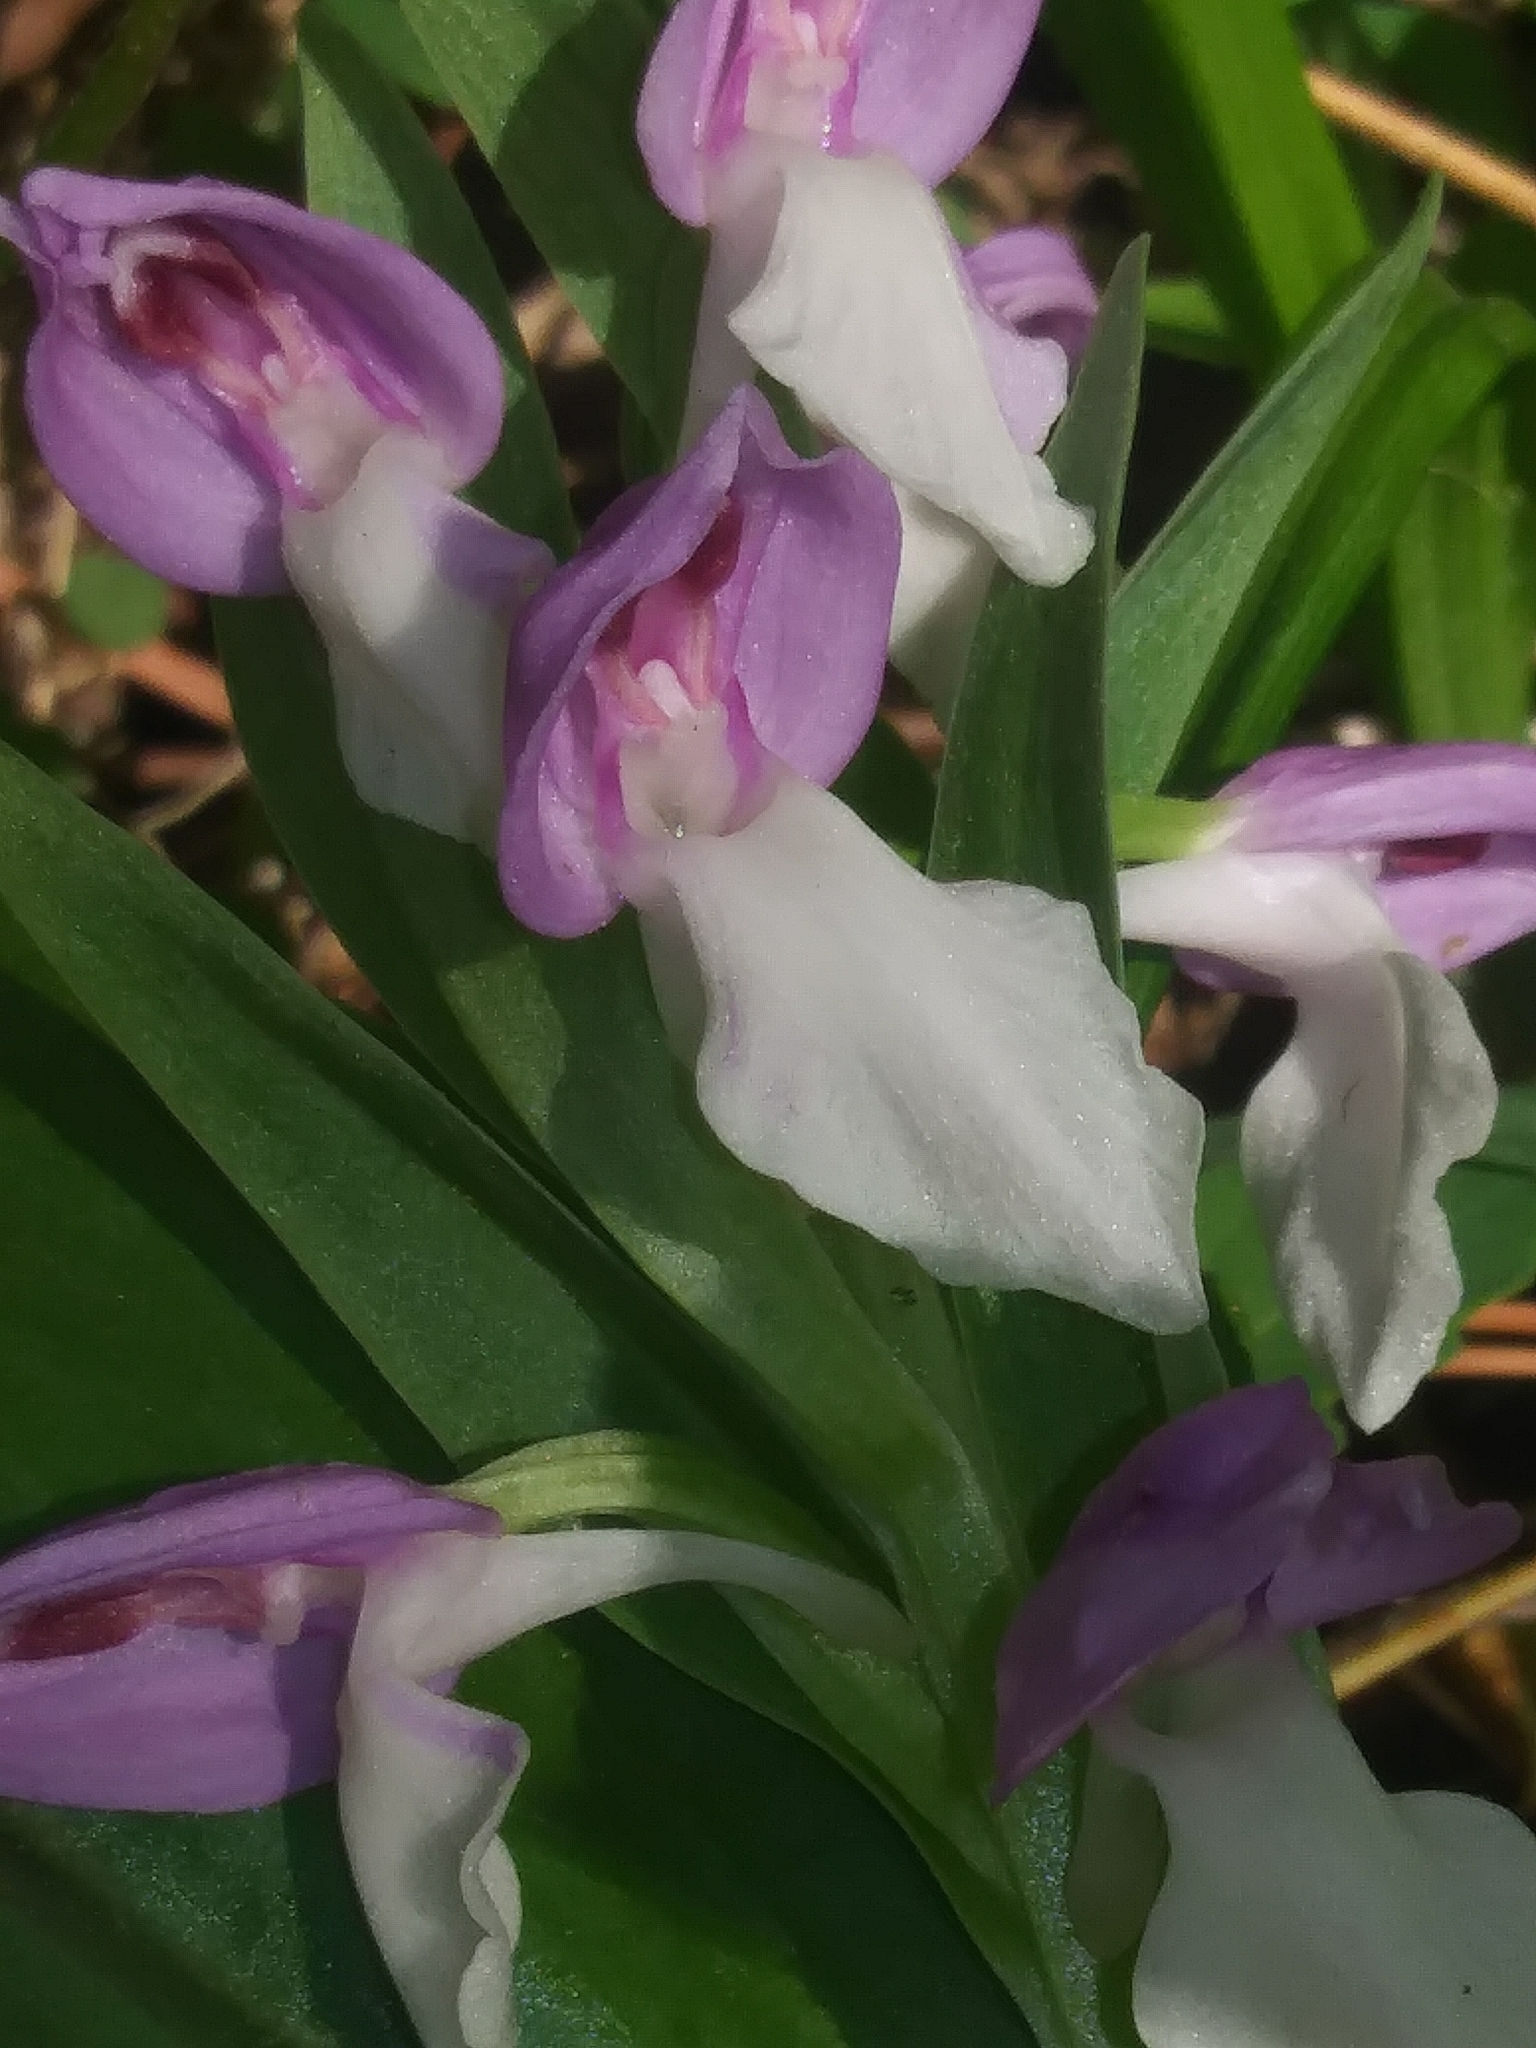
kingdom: Plantae
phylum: Tracheophyta
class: Liliopsida
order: Asparagales
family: Orchidaceae
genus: Galearis
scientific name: Galearis spectabilis
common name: Purple-hooded orchis
